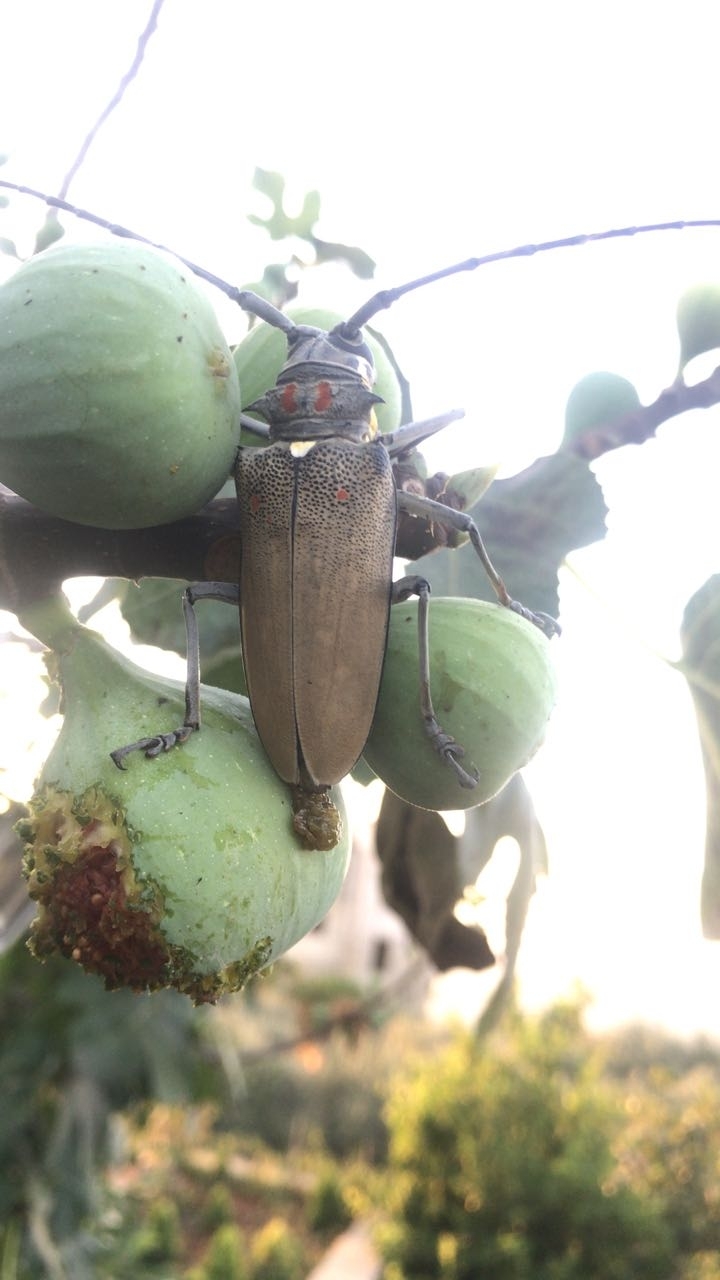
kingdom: Animalia
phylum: Arthropoda
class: Insecta
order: Coleoptera
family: Cerambycidae
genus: Batocera
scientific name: Batocera rufomaculata
